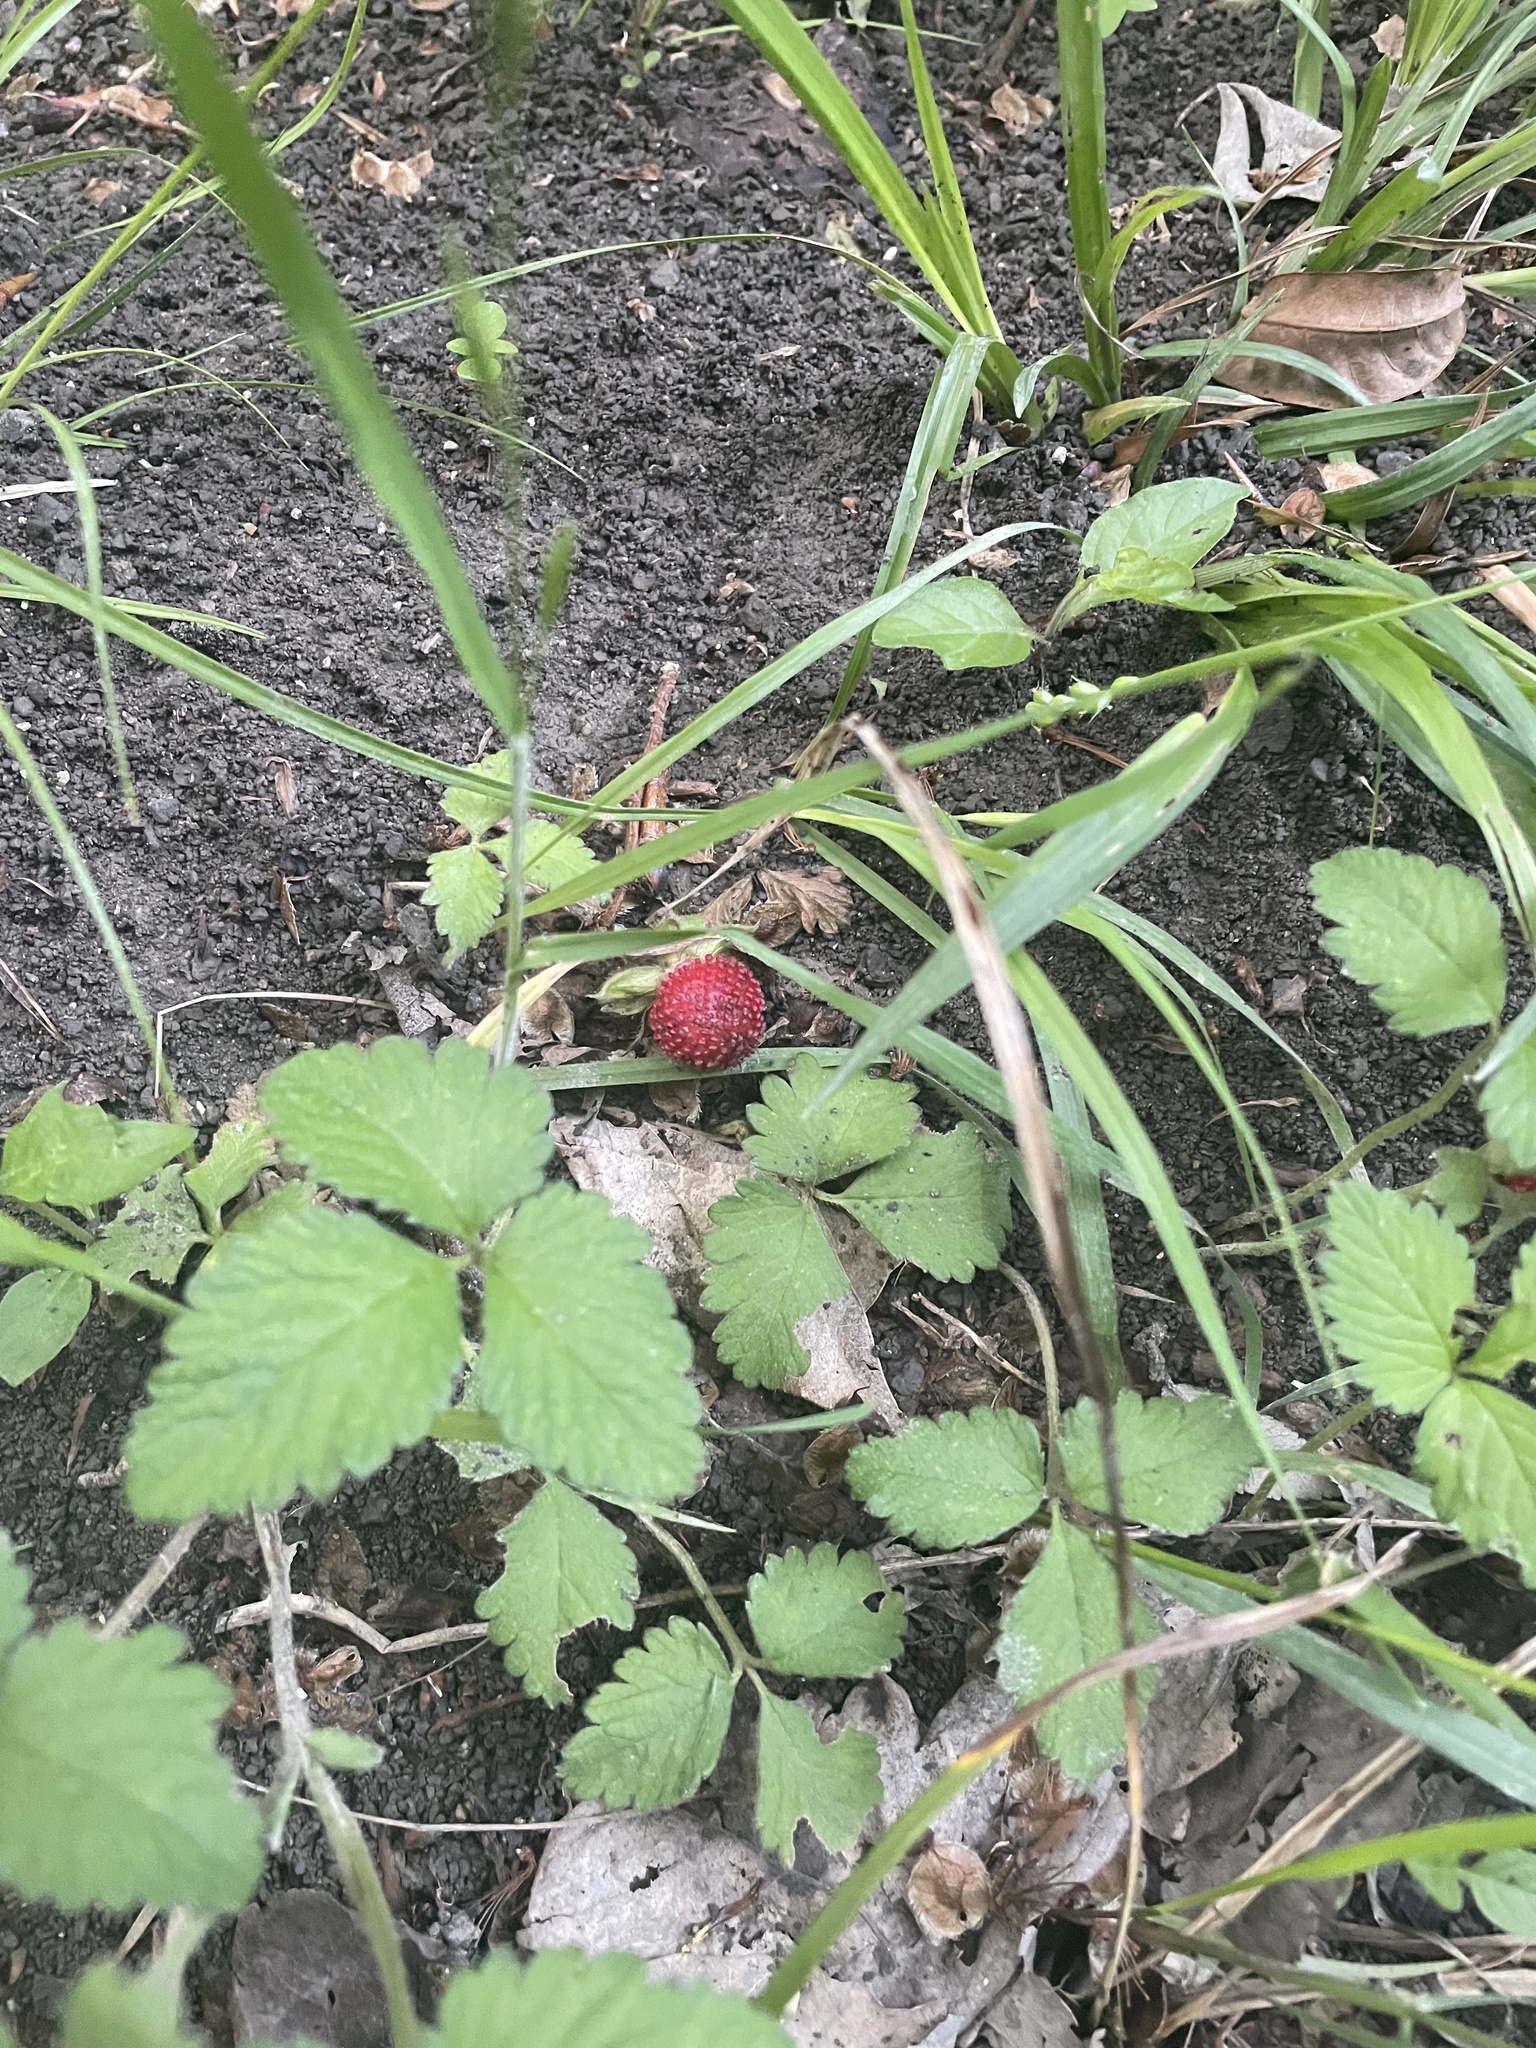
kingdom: Plantae
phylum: Tracheophyta
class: Magnoliopsida
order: Rosales
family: Rosaceae
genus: Potentilla
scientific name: Potentilla indica
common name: Yellow-flowered strawberry
